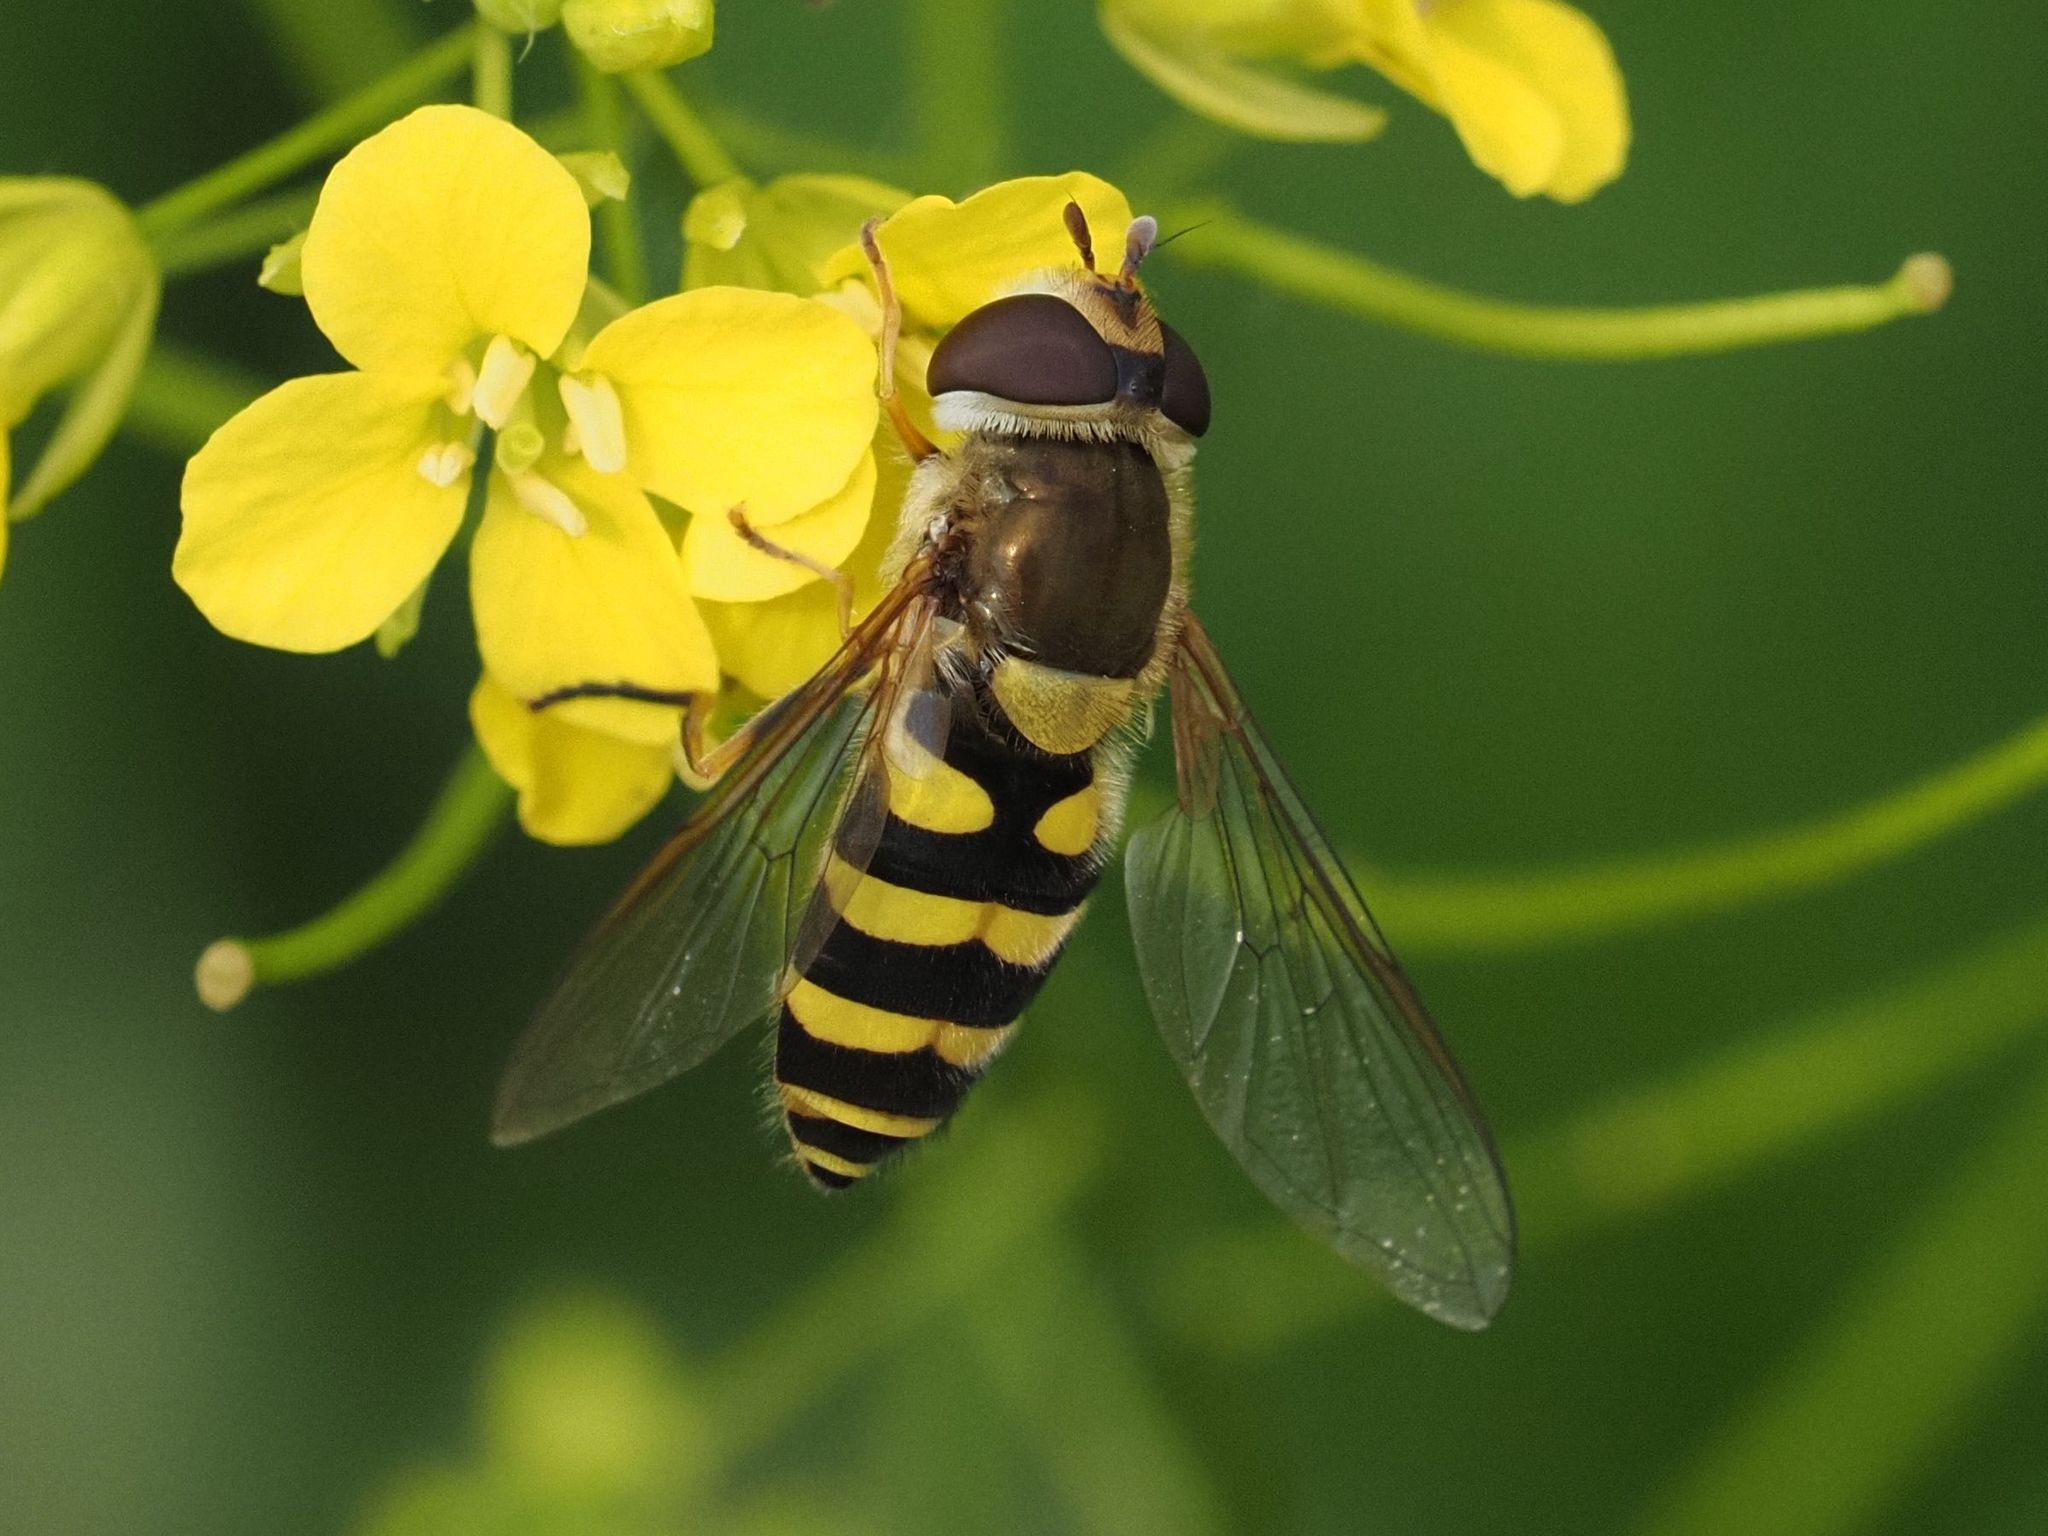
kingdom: Animalia
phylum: Arthropoda
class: Insecta
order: Diptera
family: Syrphidae
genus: Syrphus
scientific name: Syrphus
